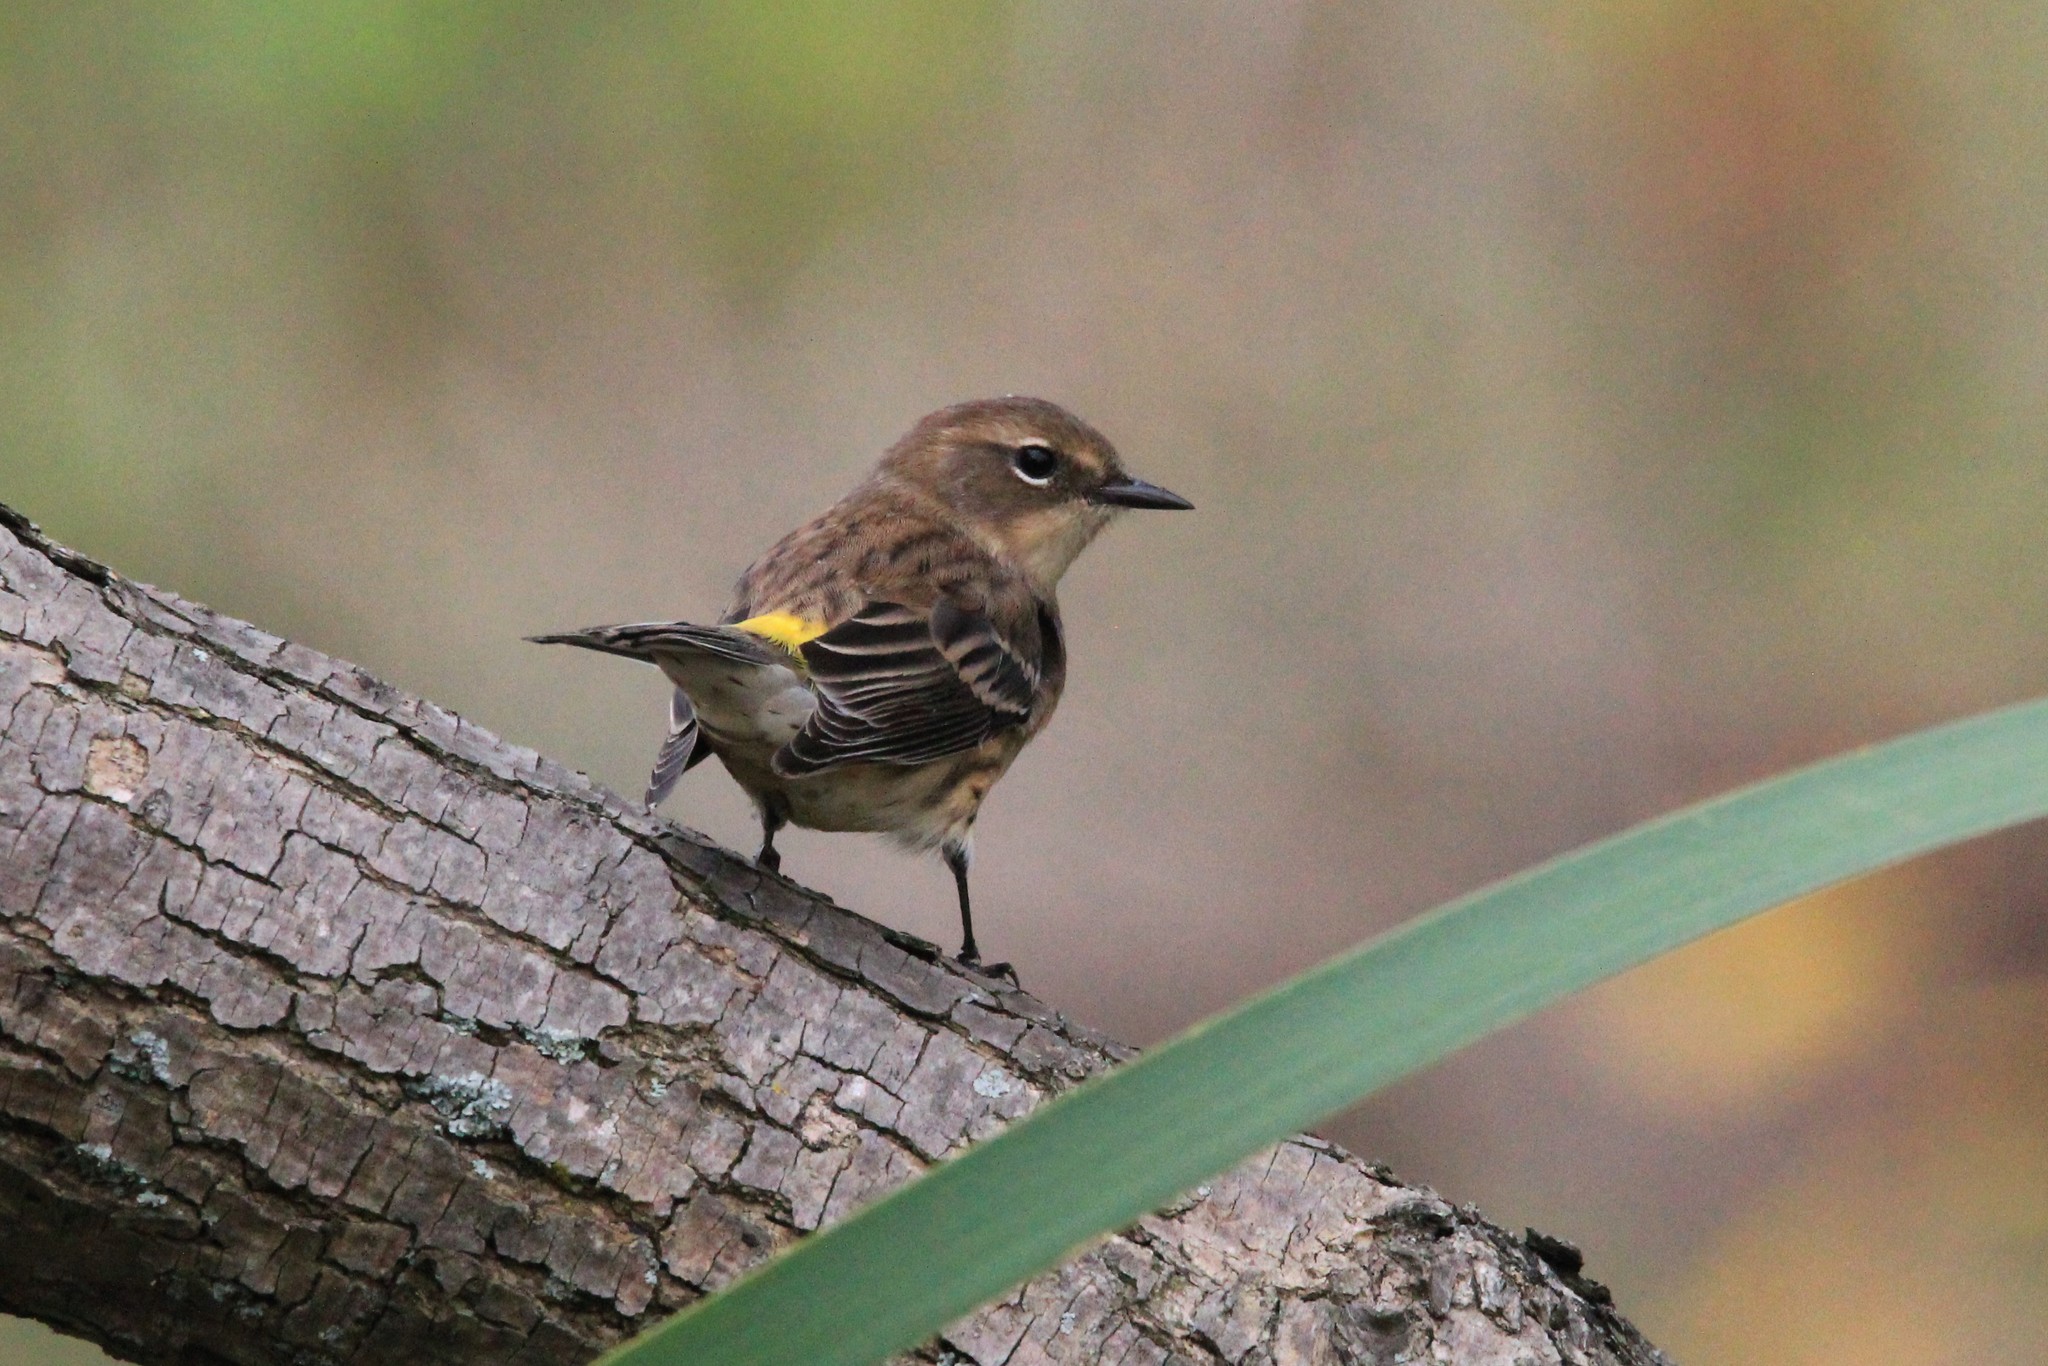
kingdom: Animalia
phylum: Chordata
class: Aves
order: Passeriformes
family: Parulidae
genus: Setophaga
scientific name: Setophaga coronata
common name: Myrtle warbler
